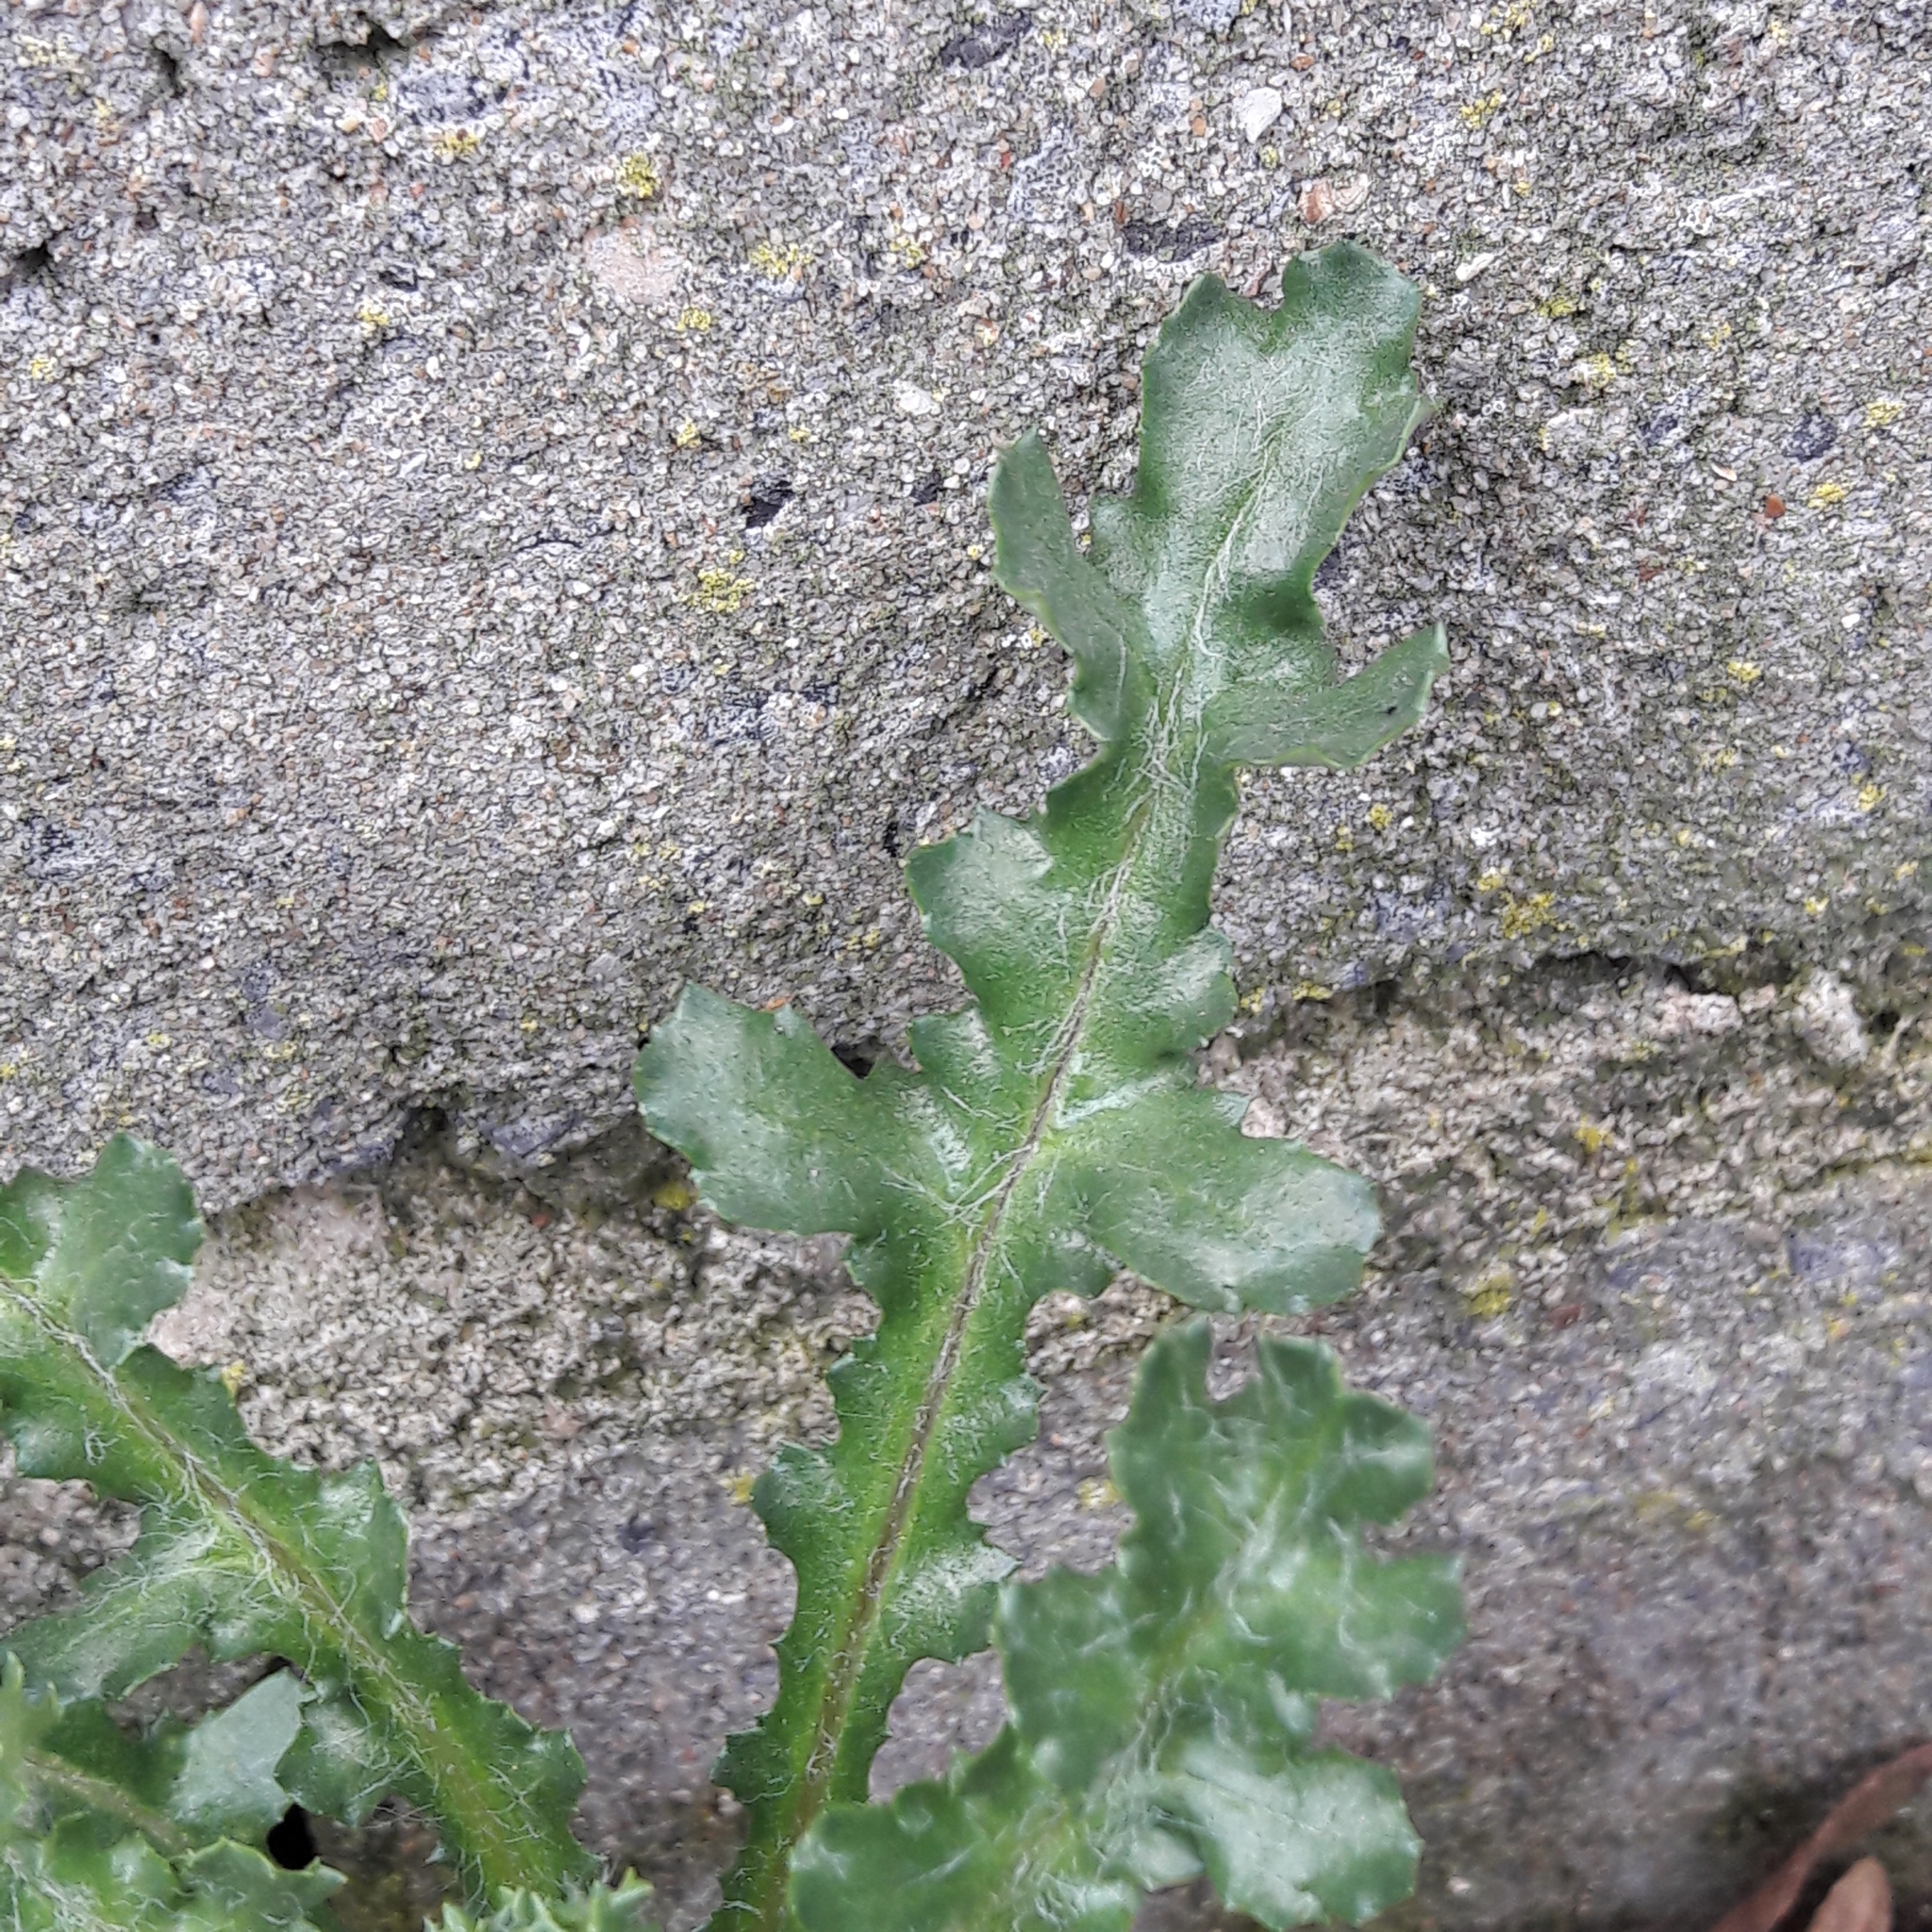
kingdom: Plantae
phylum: Tracheophyta
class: Magnoliopsida
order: Asterales
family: Asteraceae
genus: Senecio
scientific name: Senecio vulgaris
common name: Old-man-in-the-spring
